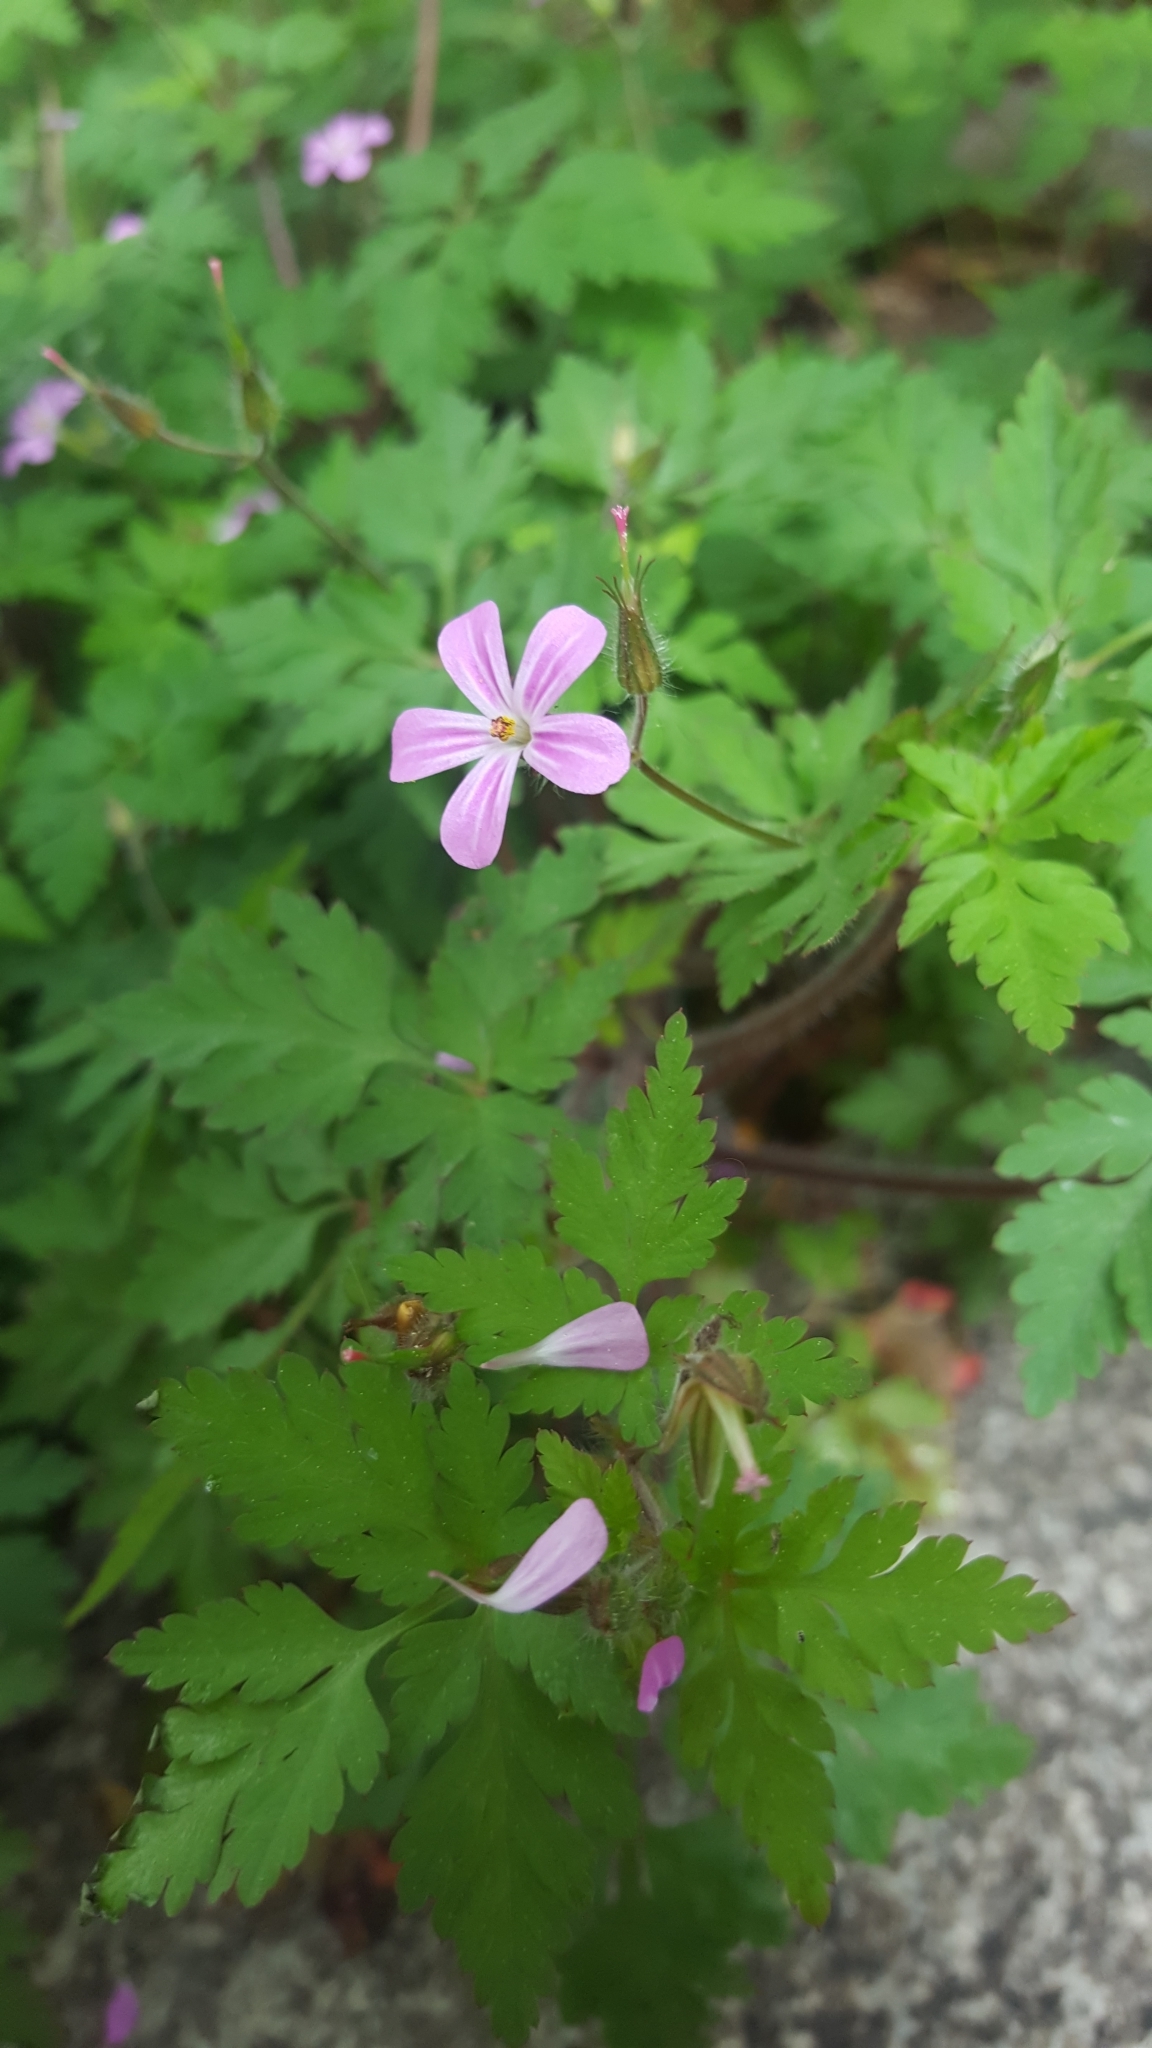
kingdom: Plantae
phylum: Tracheophyta
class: Magnoliopsida
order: Geraniales
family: Geraniaceae
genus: Geranium
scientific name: Geranium robertianum
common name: Herb-robert
